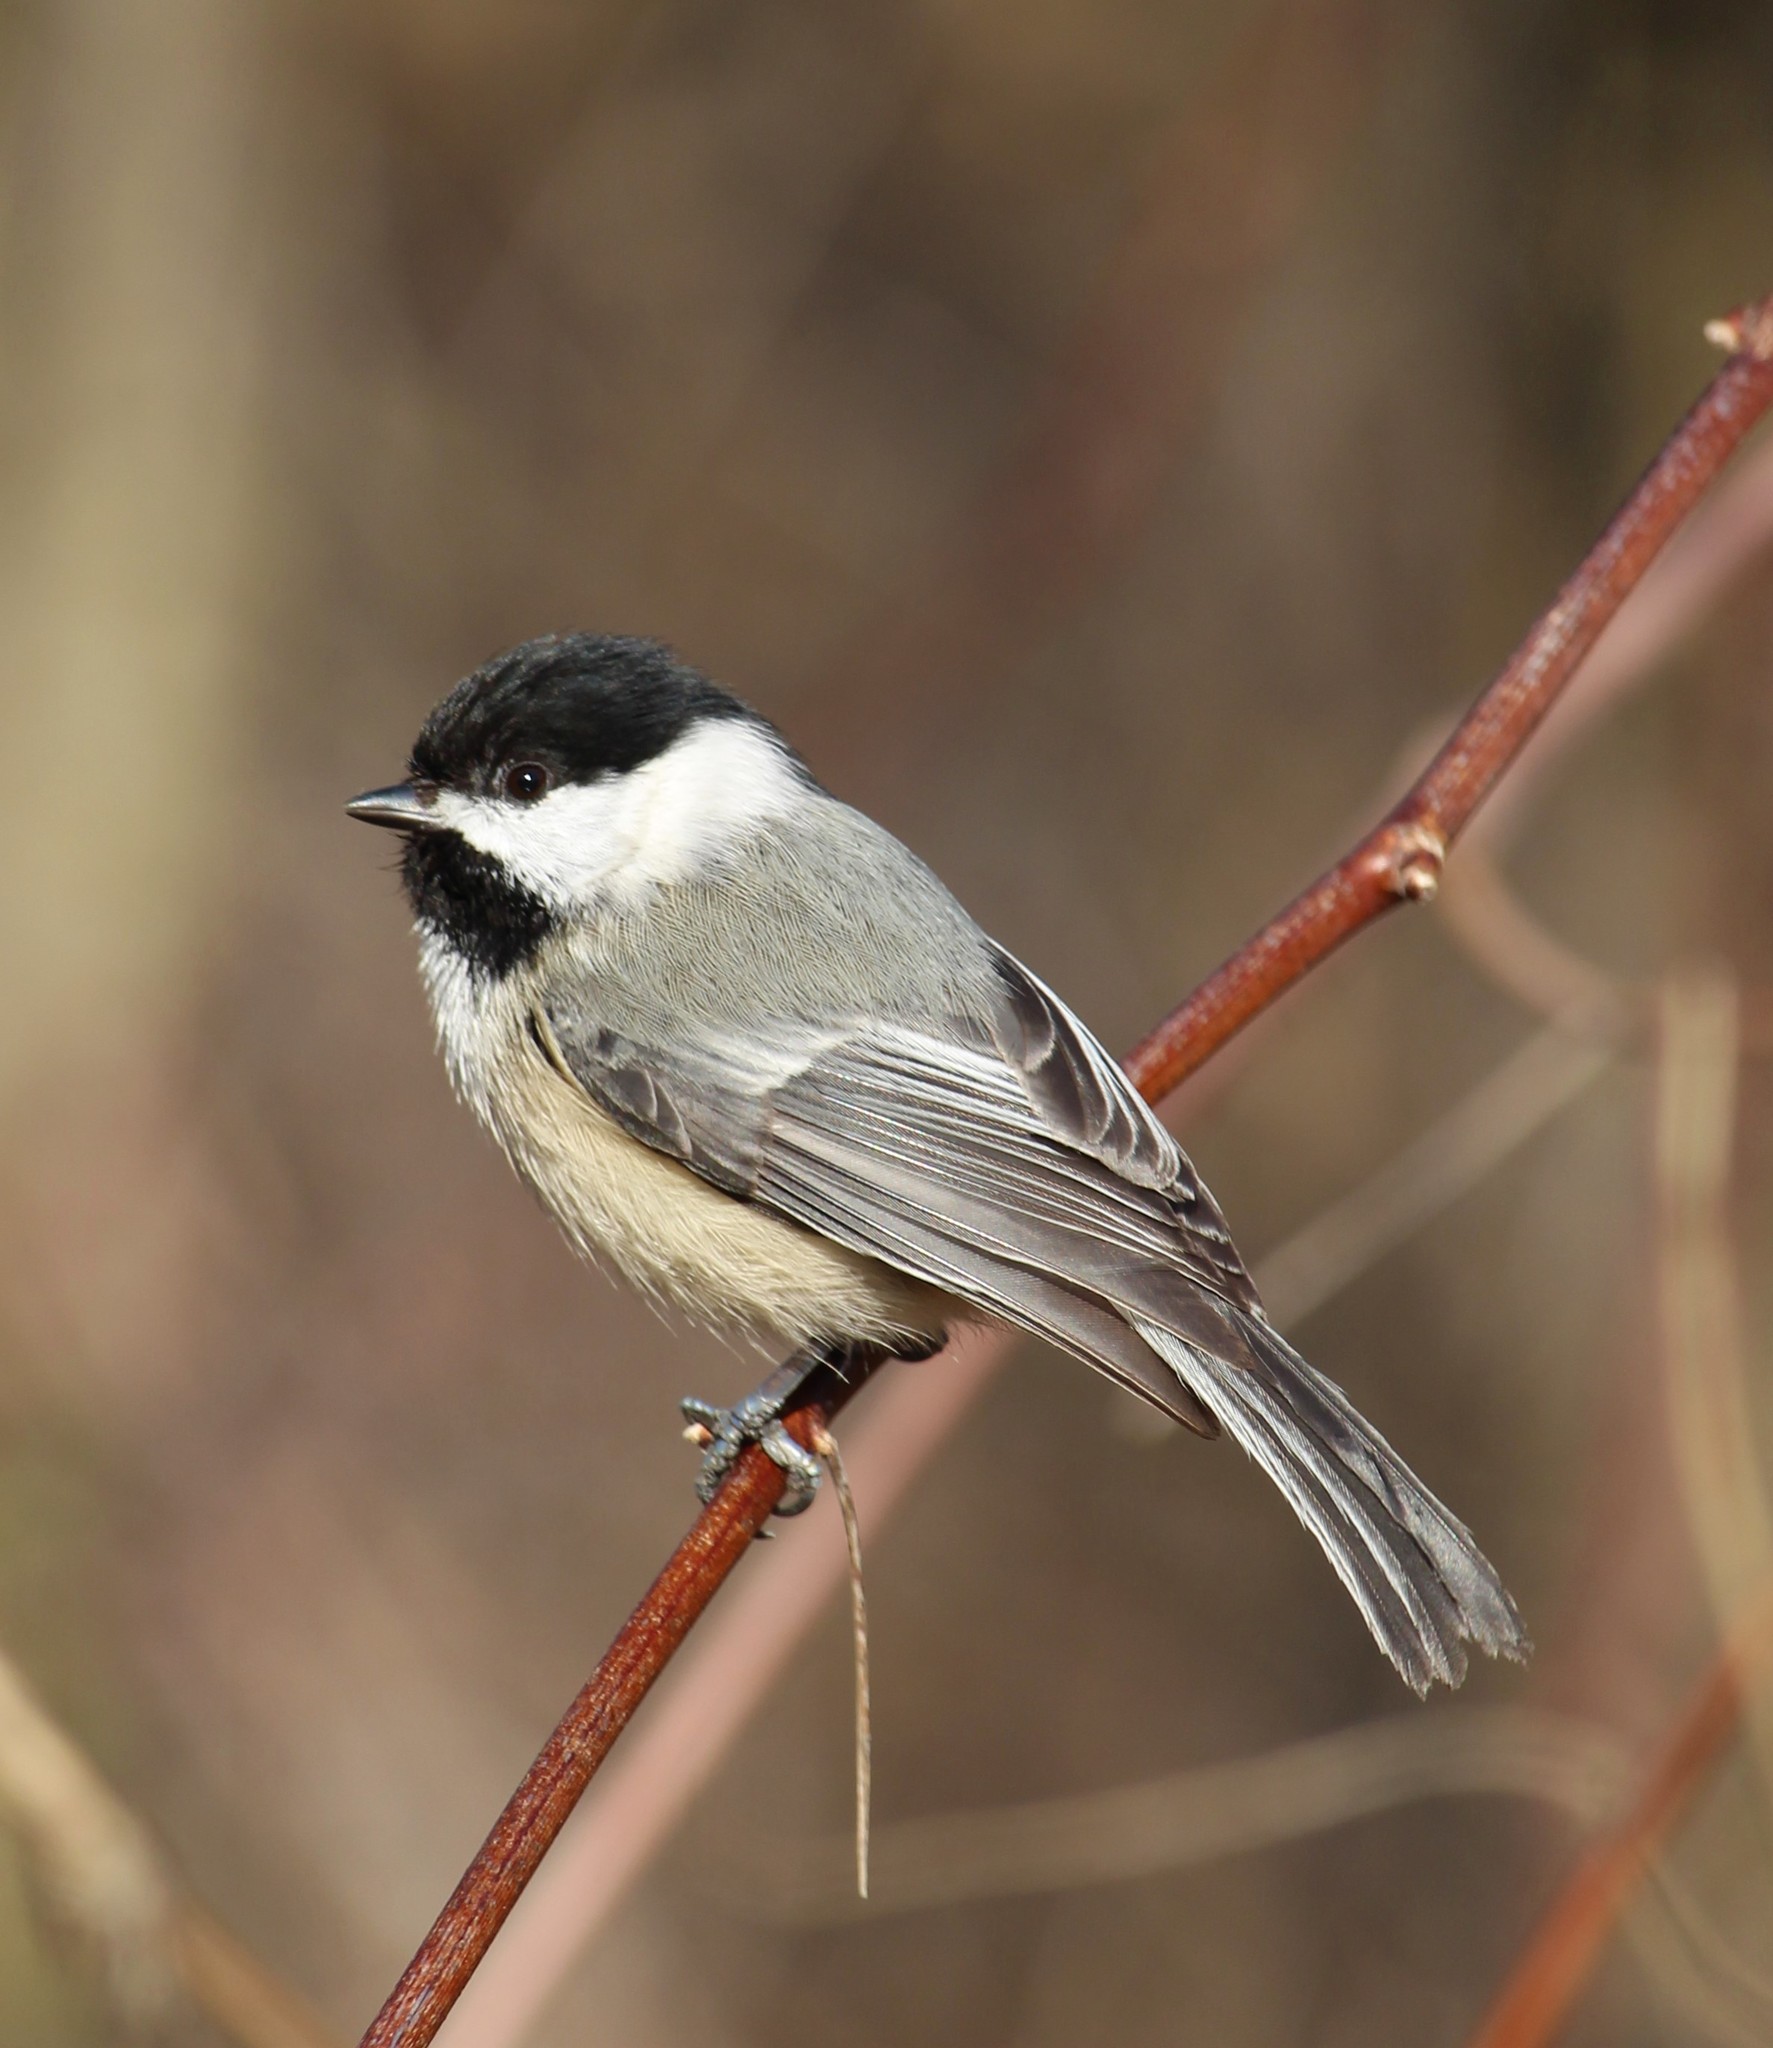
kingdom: Animalia
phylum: Chordata
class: Aves
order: Passeriformes
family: Paridae
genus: Poecile
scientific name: Poecile atricapillus
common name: Black-capped chickadee
